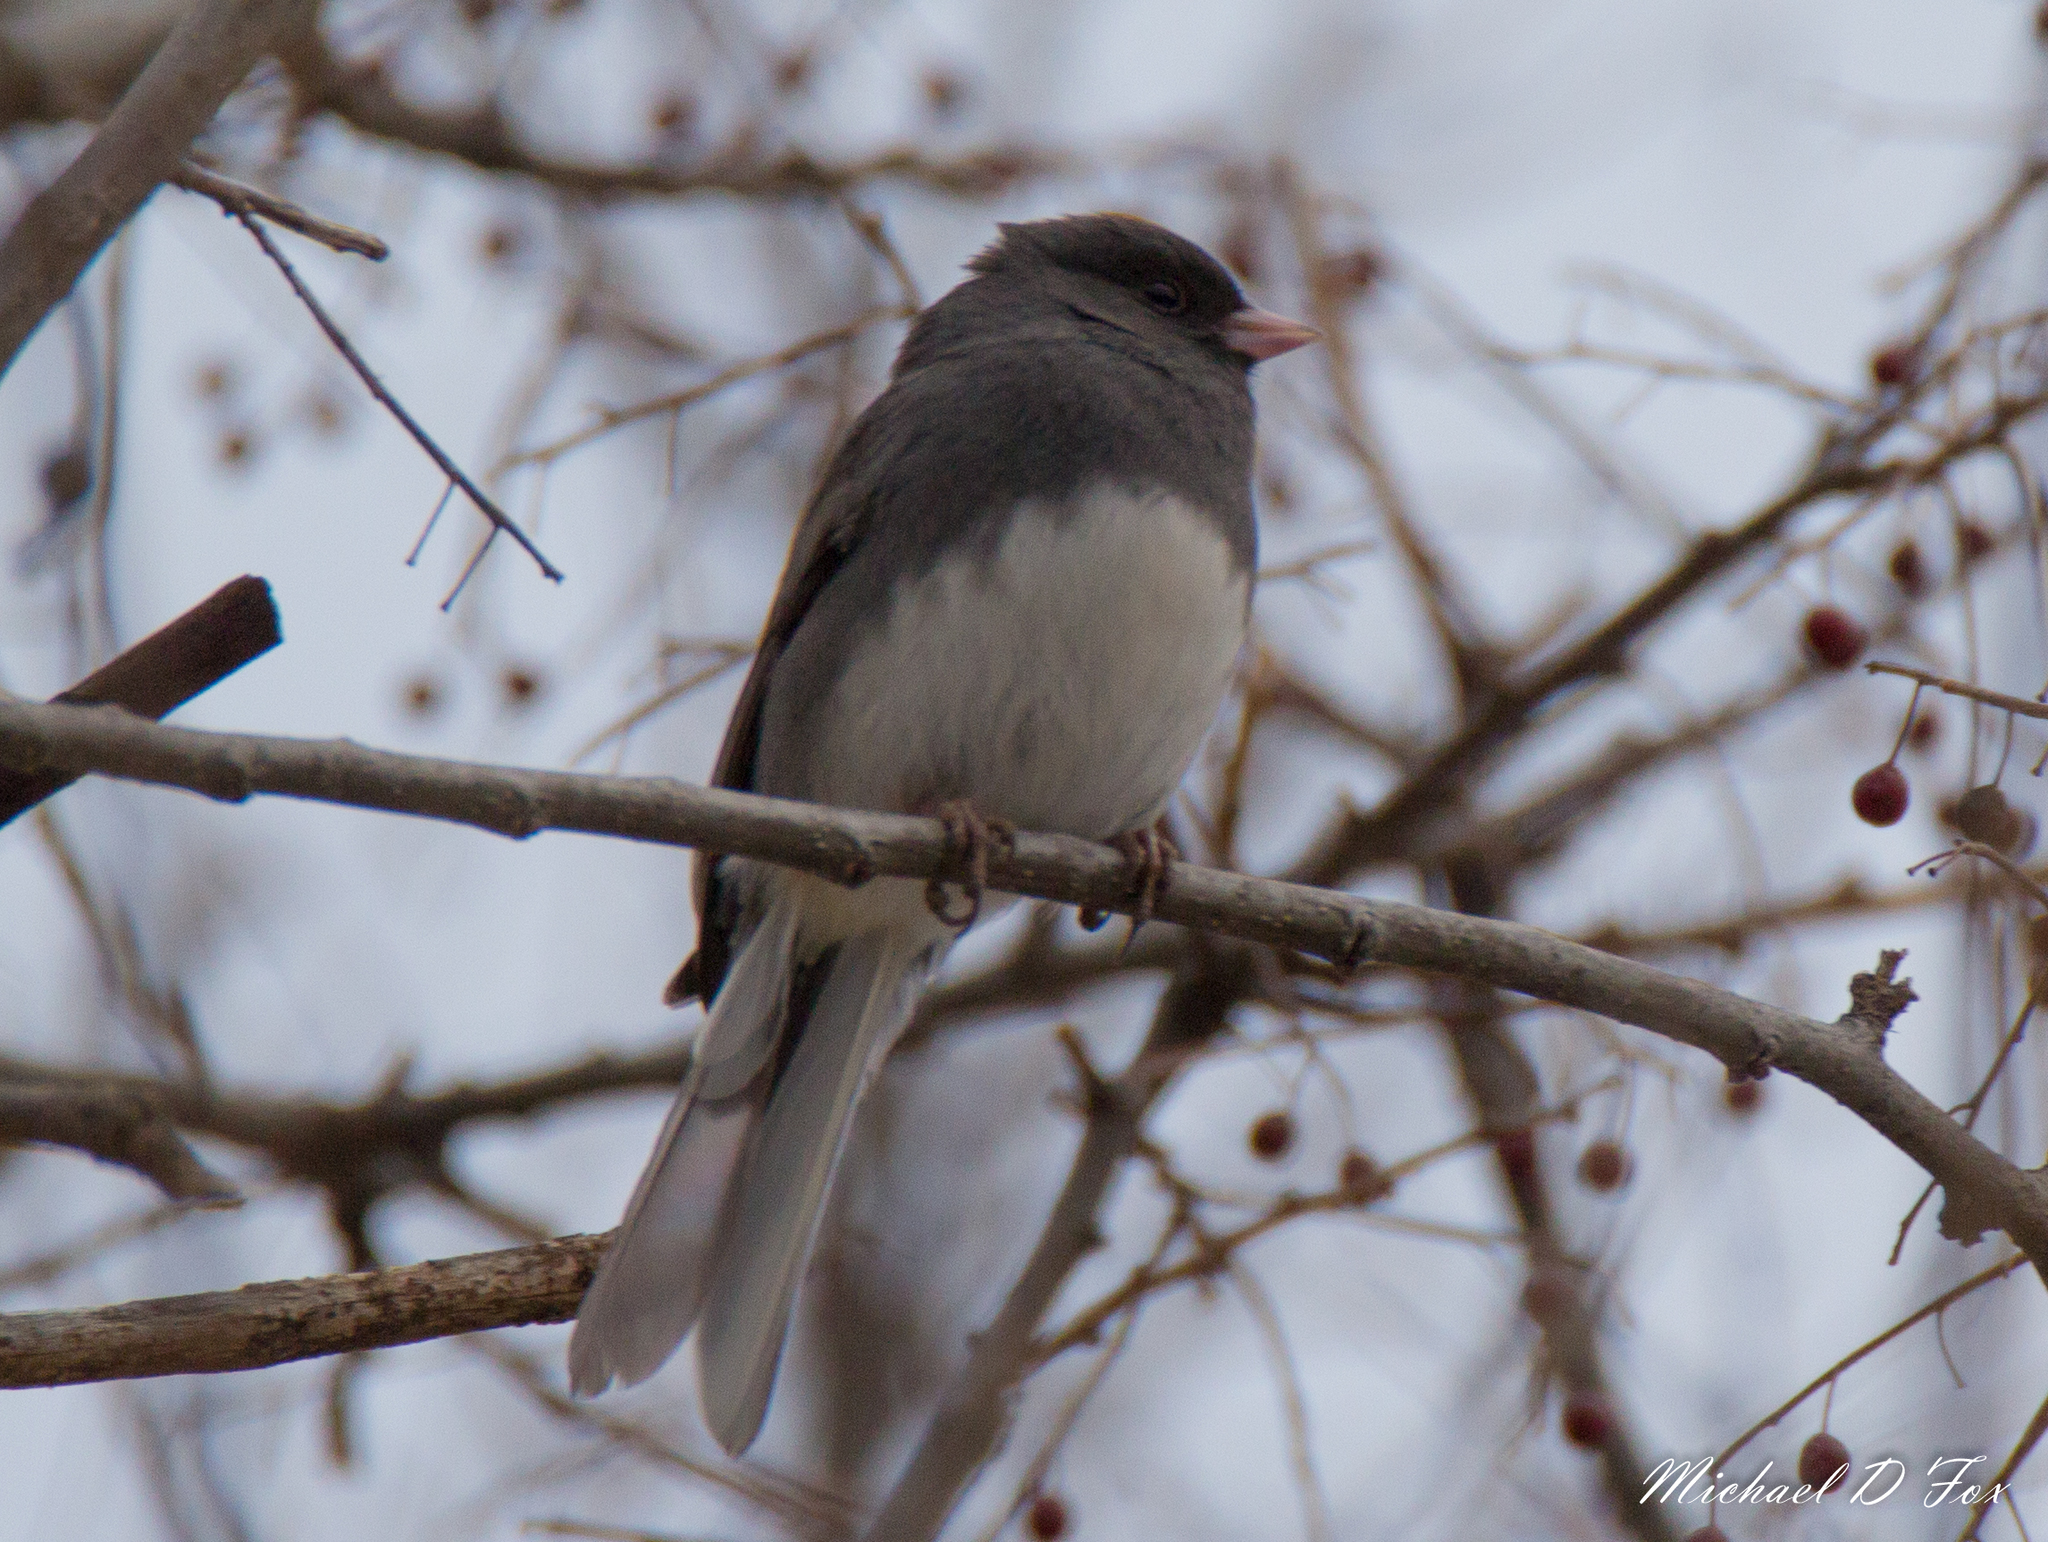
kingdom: Animalia
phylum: Chordata
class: Aves
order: Passeriformes
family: Passerellidae
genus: Junco
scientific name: Junco hyemalis
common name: Dark-eyed junco
